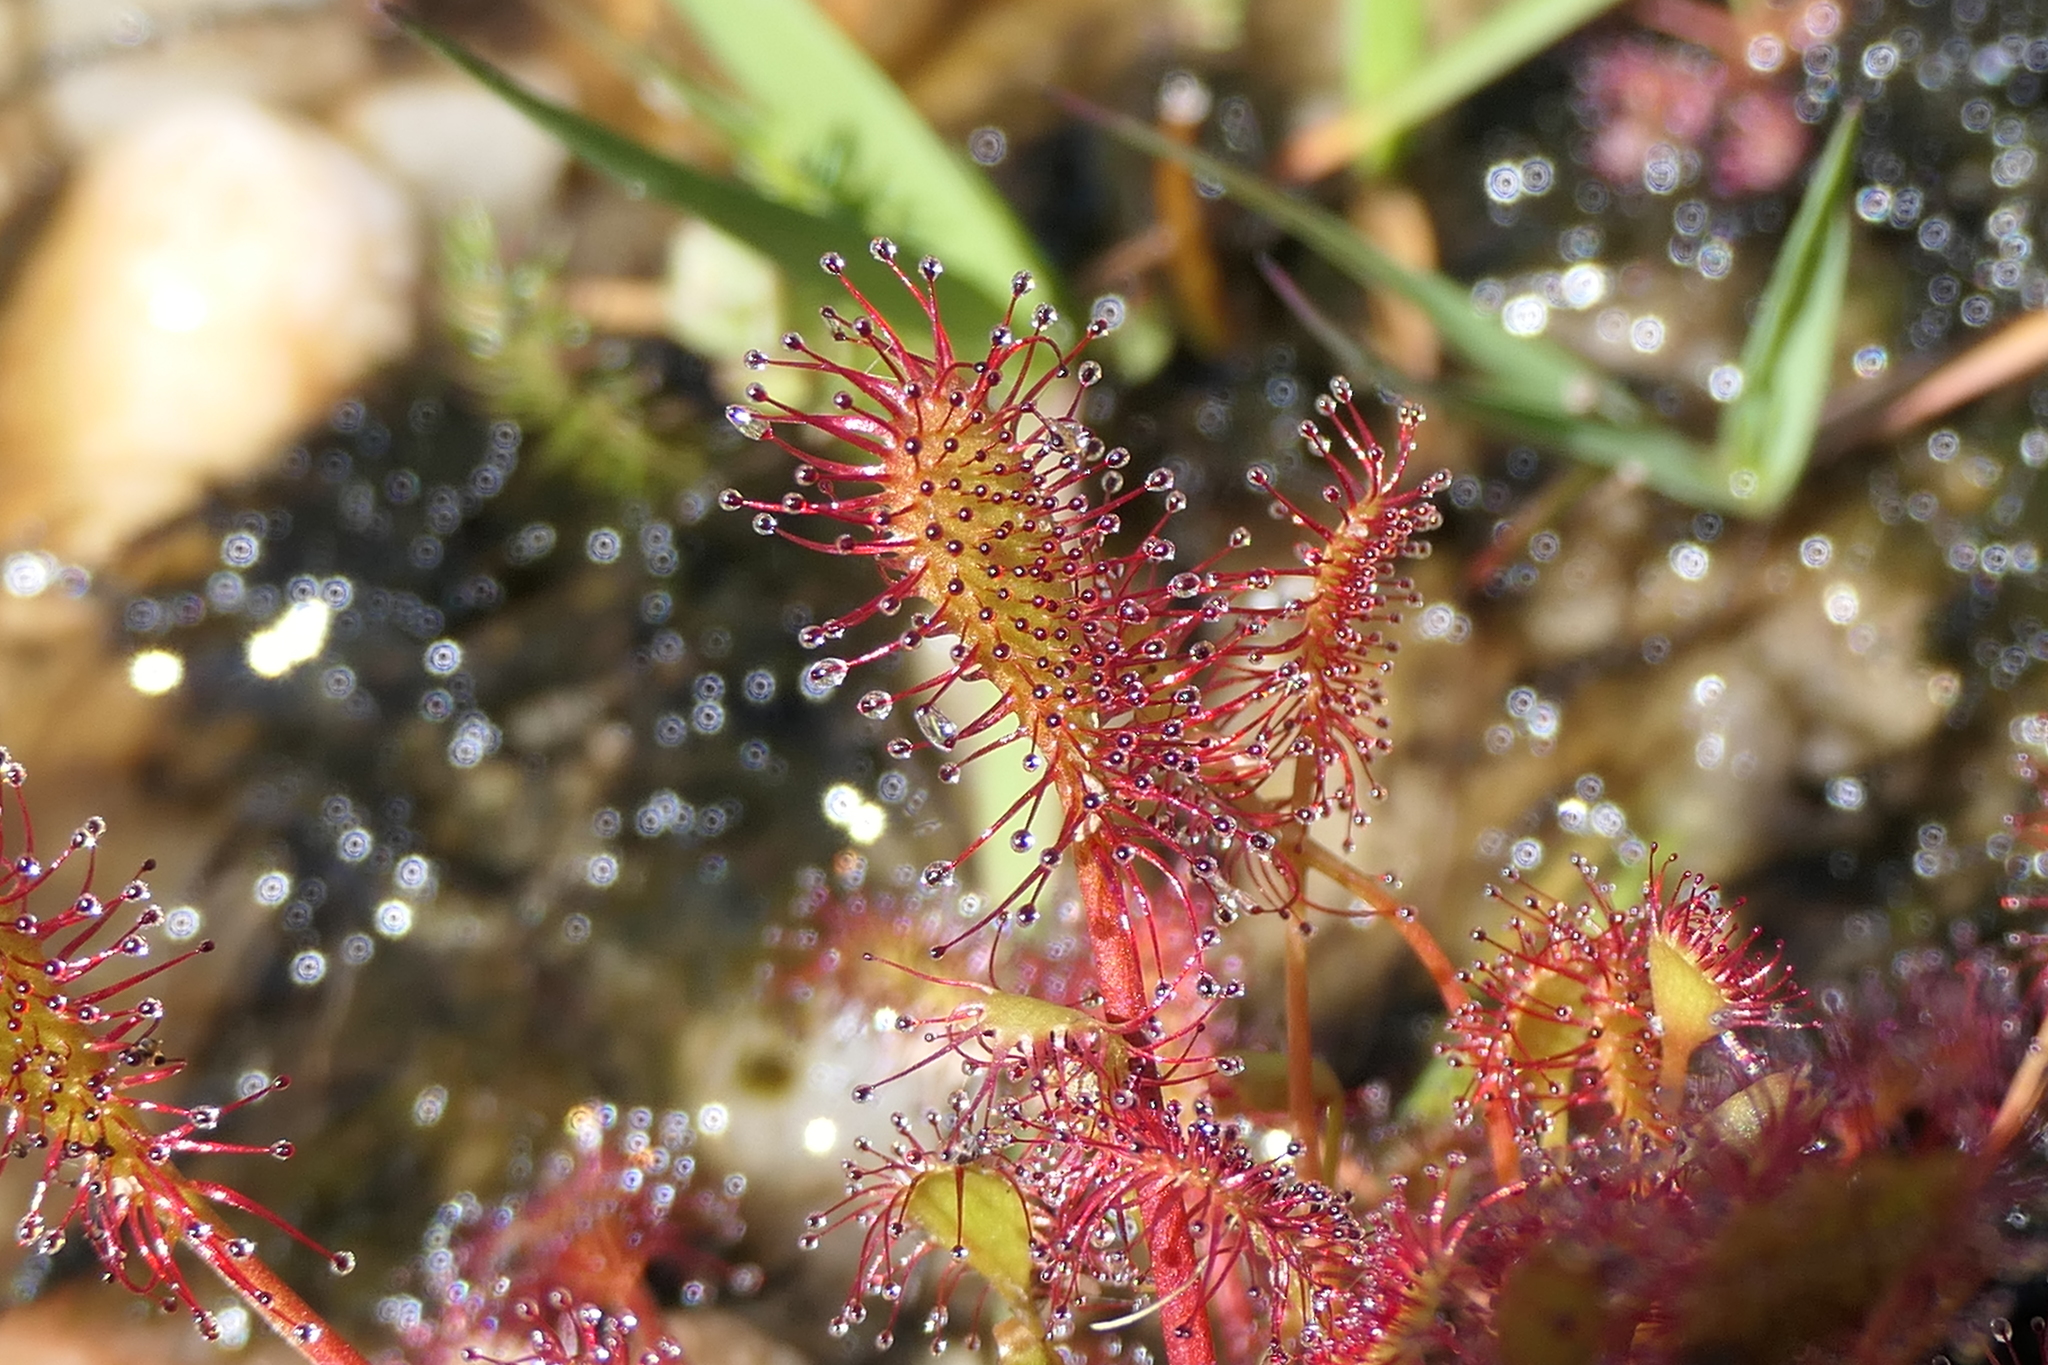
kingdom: Plantae
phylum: Tracheophyta
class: Magnoliopsida
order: Caryophyllales
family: Droseraceae
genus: Drosera
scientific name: Drosera intermedia
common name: Oblong-leaved sundew
